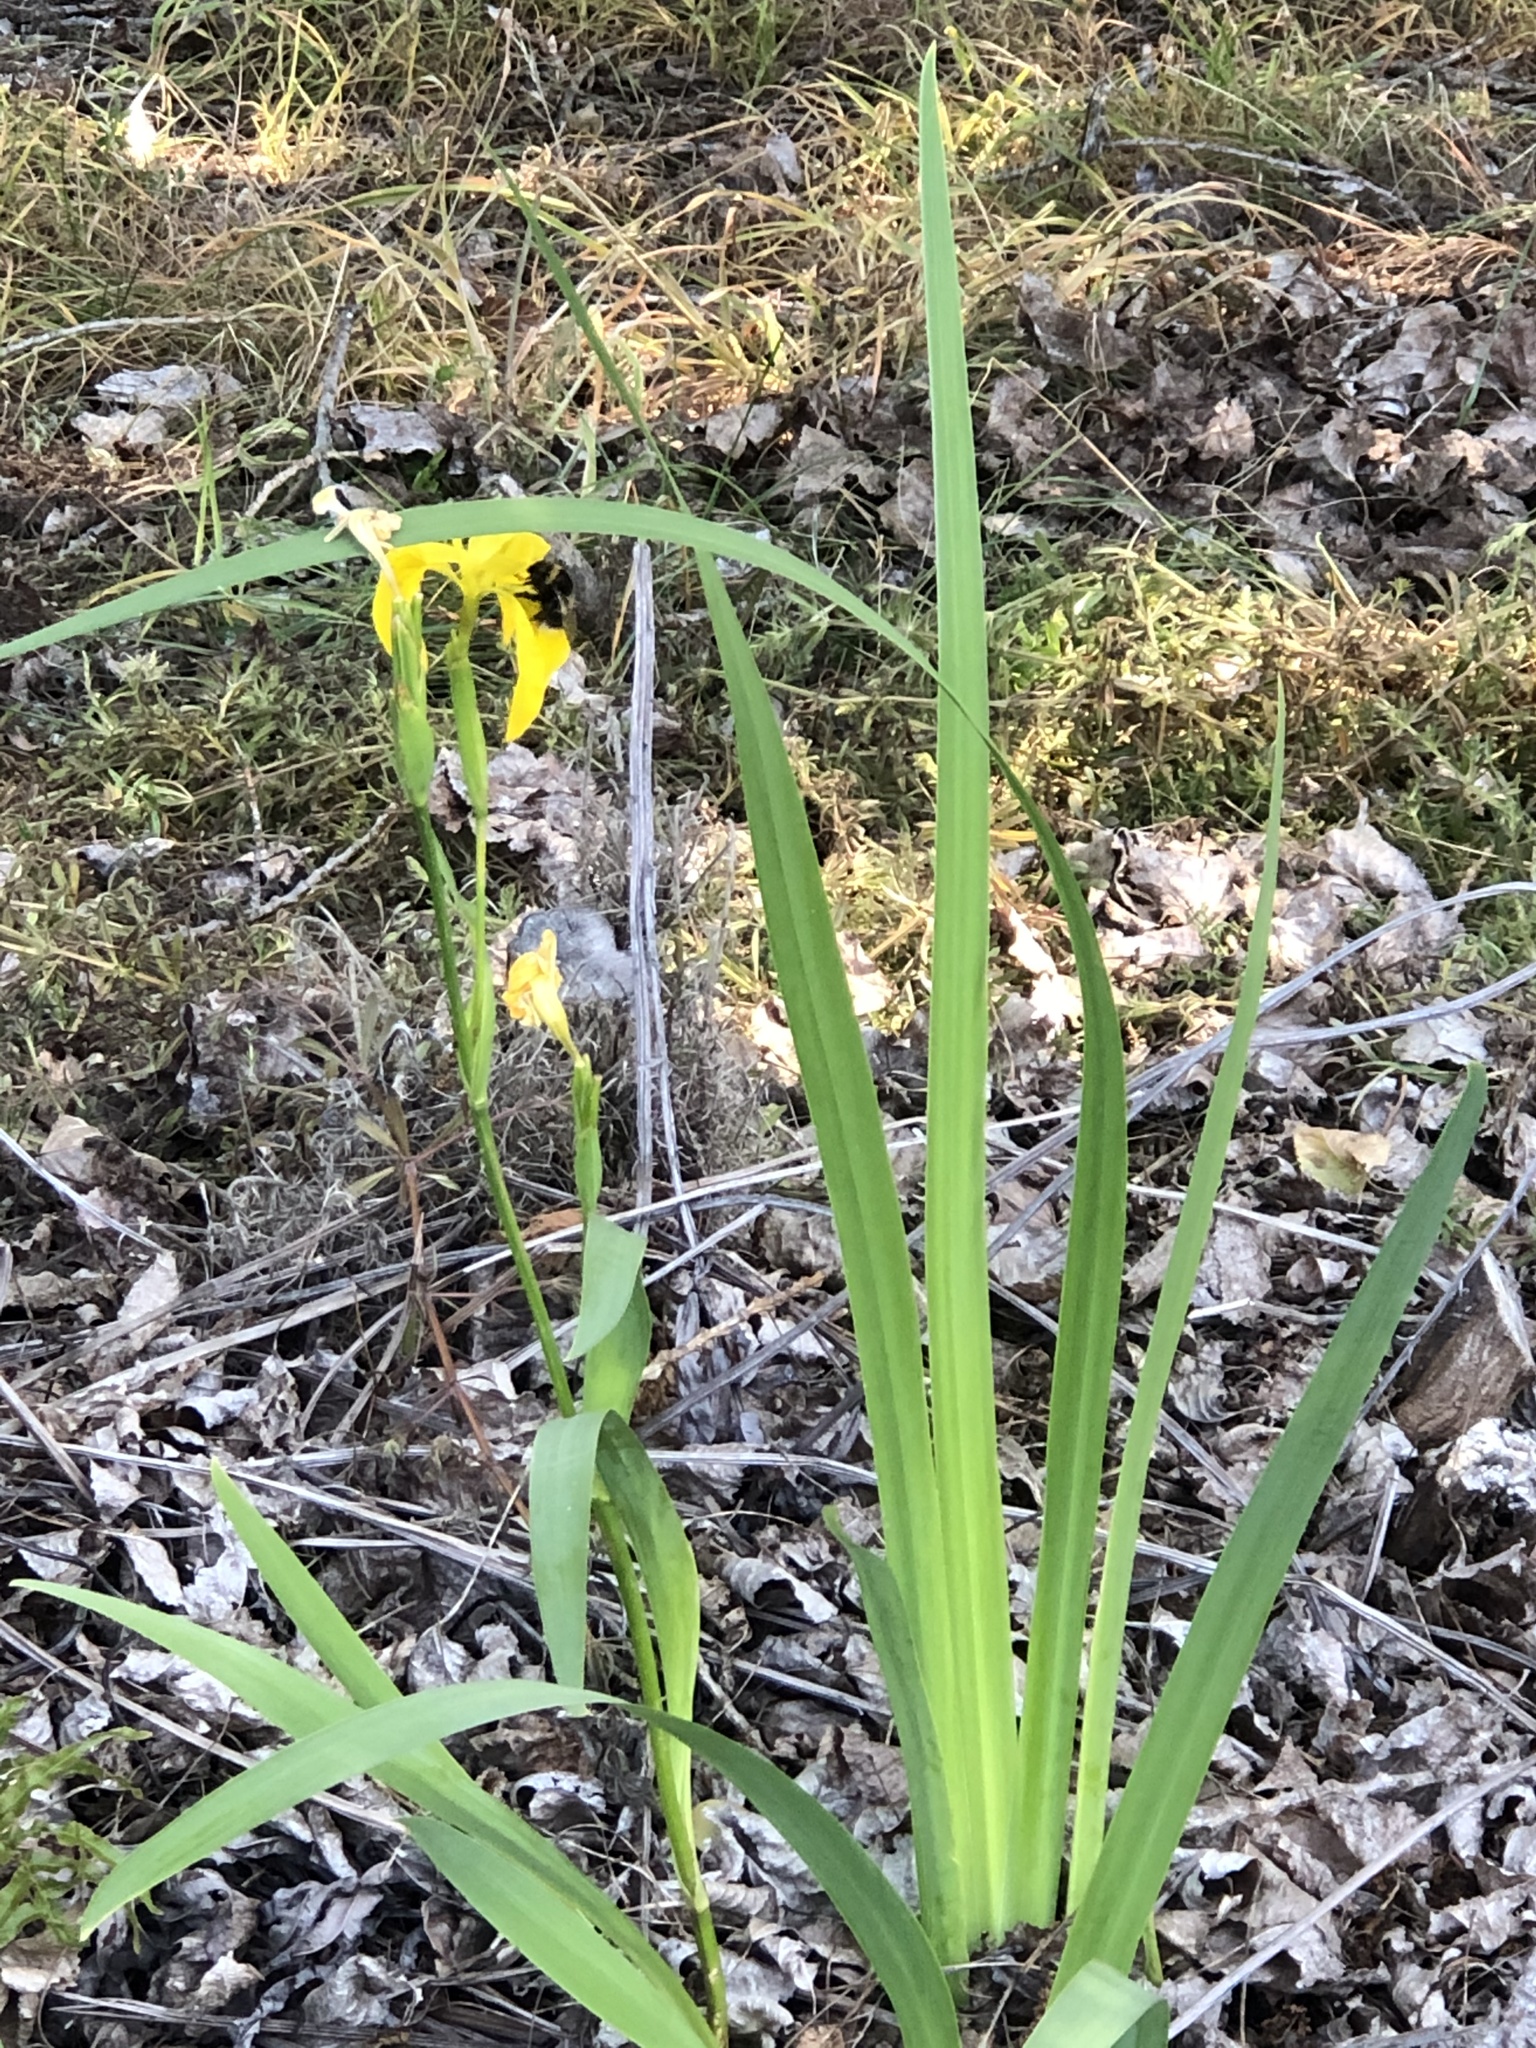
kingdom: Plantae
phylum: Tracheophyta
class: Liliopsida
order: Asparagales
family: Iridaceae
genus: Iris
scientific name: Iris pseudacorus
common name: Yellow flag
